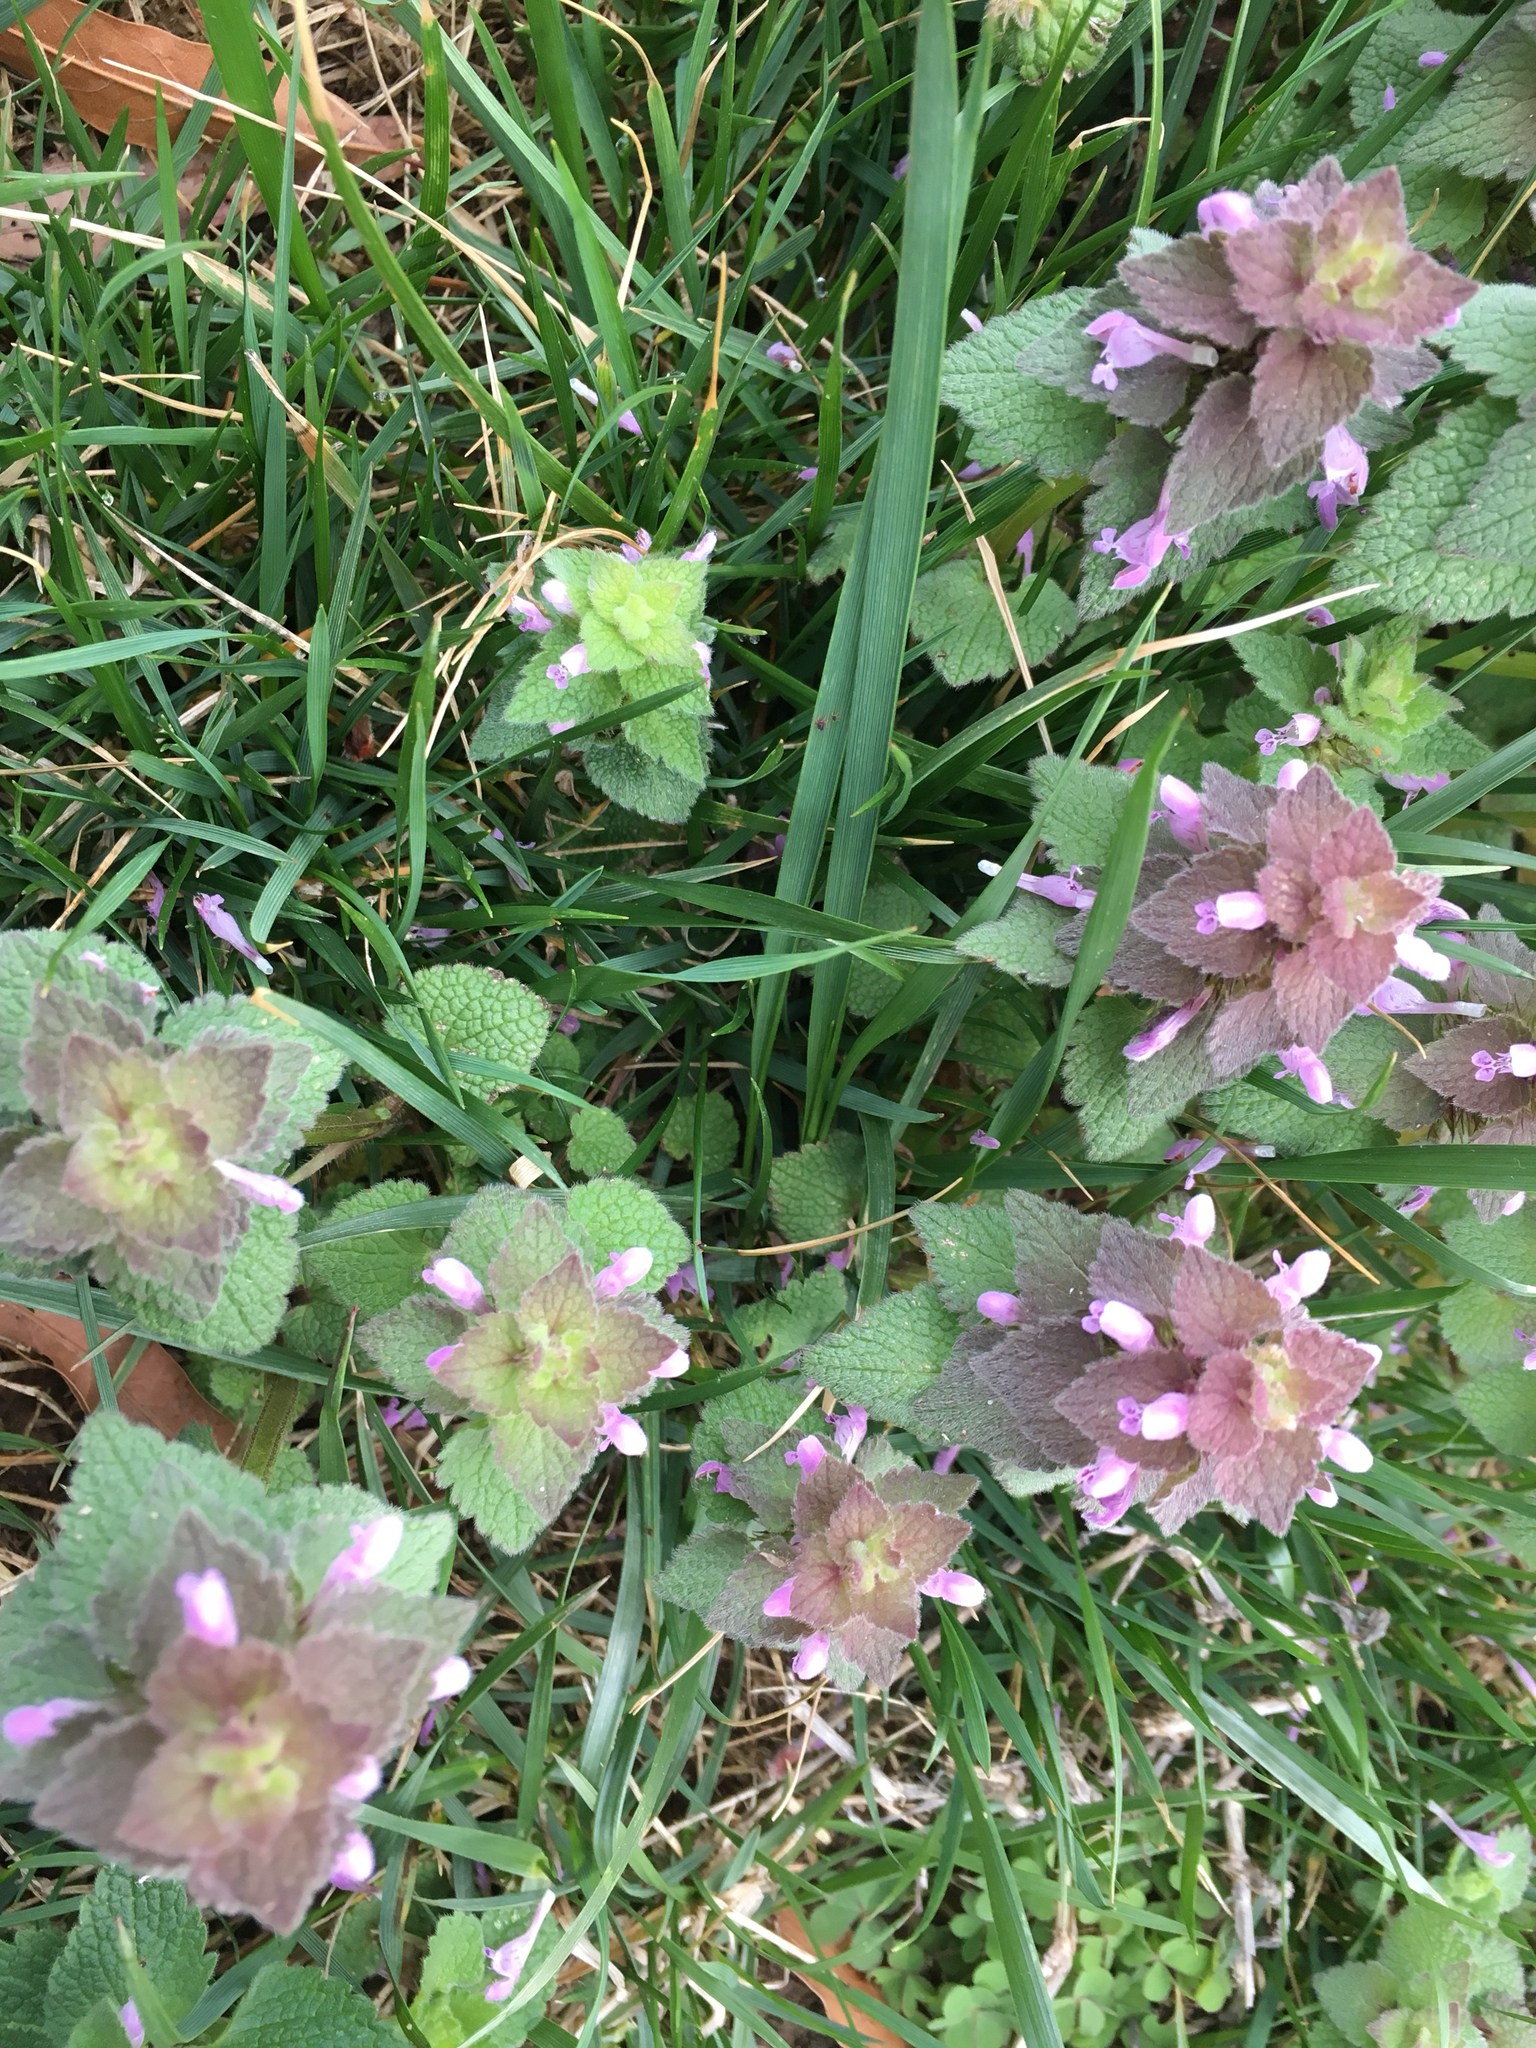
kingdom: Plantae
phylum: Tracheophyta
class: Magnoliopsida
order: Lamiales
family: Lamiaceae
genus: Lamium
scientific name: Lamium purpureum
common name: Red dead-nettle
